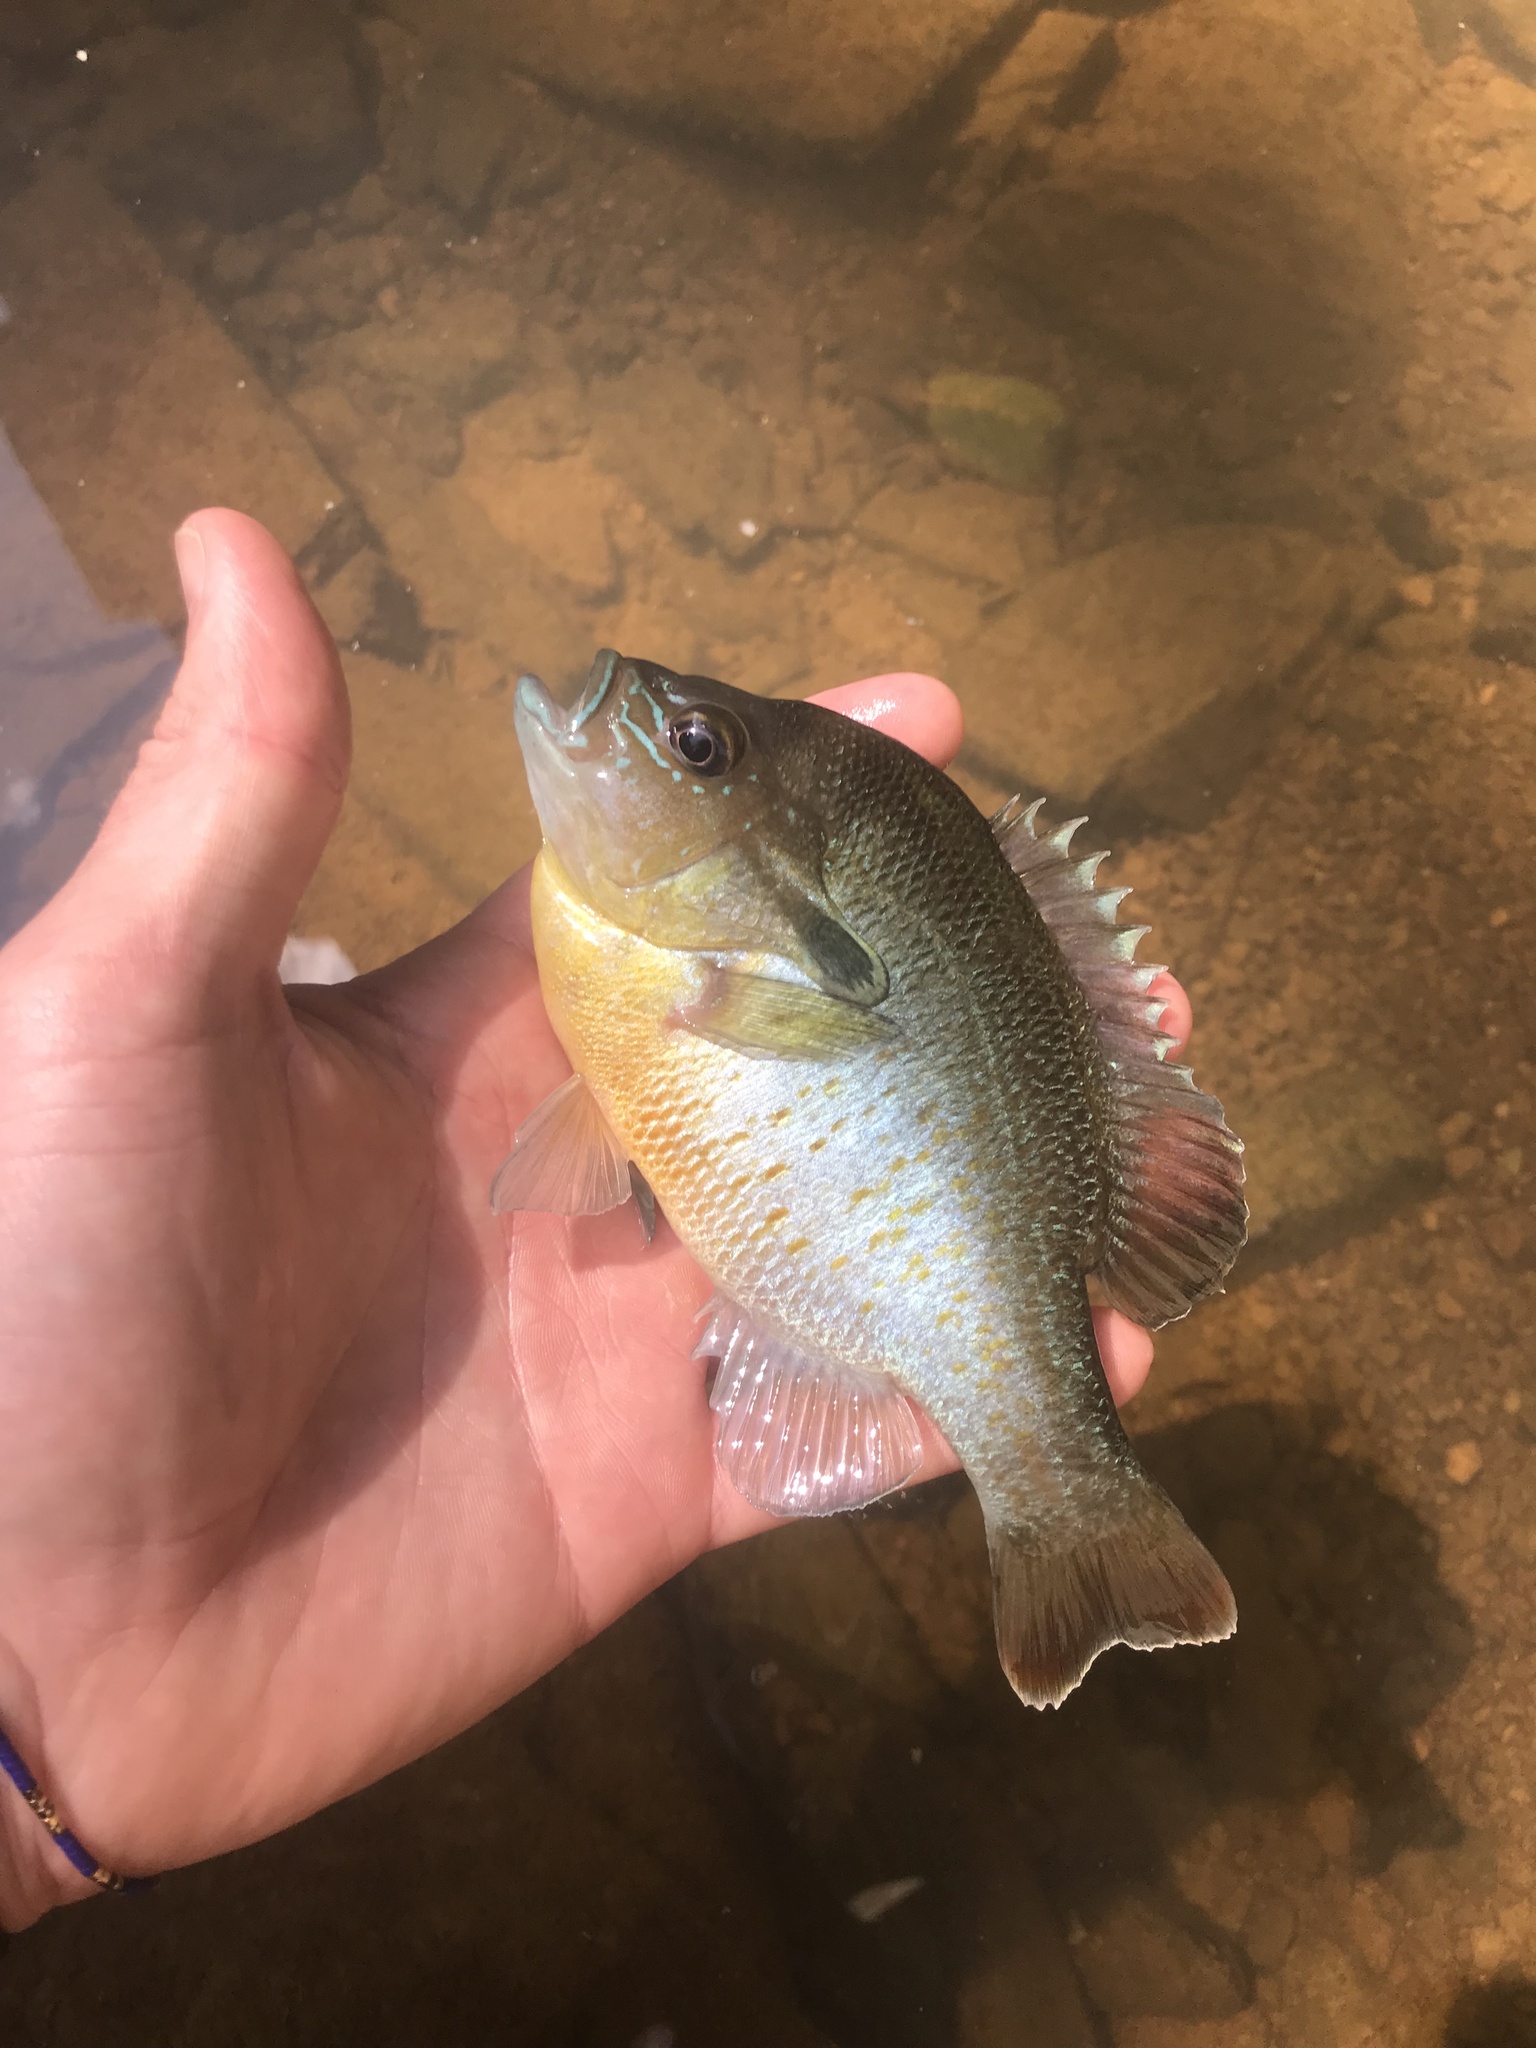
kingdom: Animalia
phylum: Chordata
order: Perciformes
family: Centrarchidae
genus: Lepomis
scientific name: Lepomis auritus
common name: Redbreast sunfish
